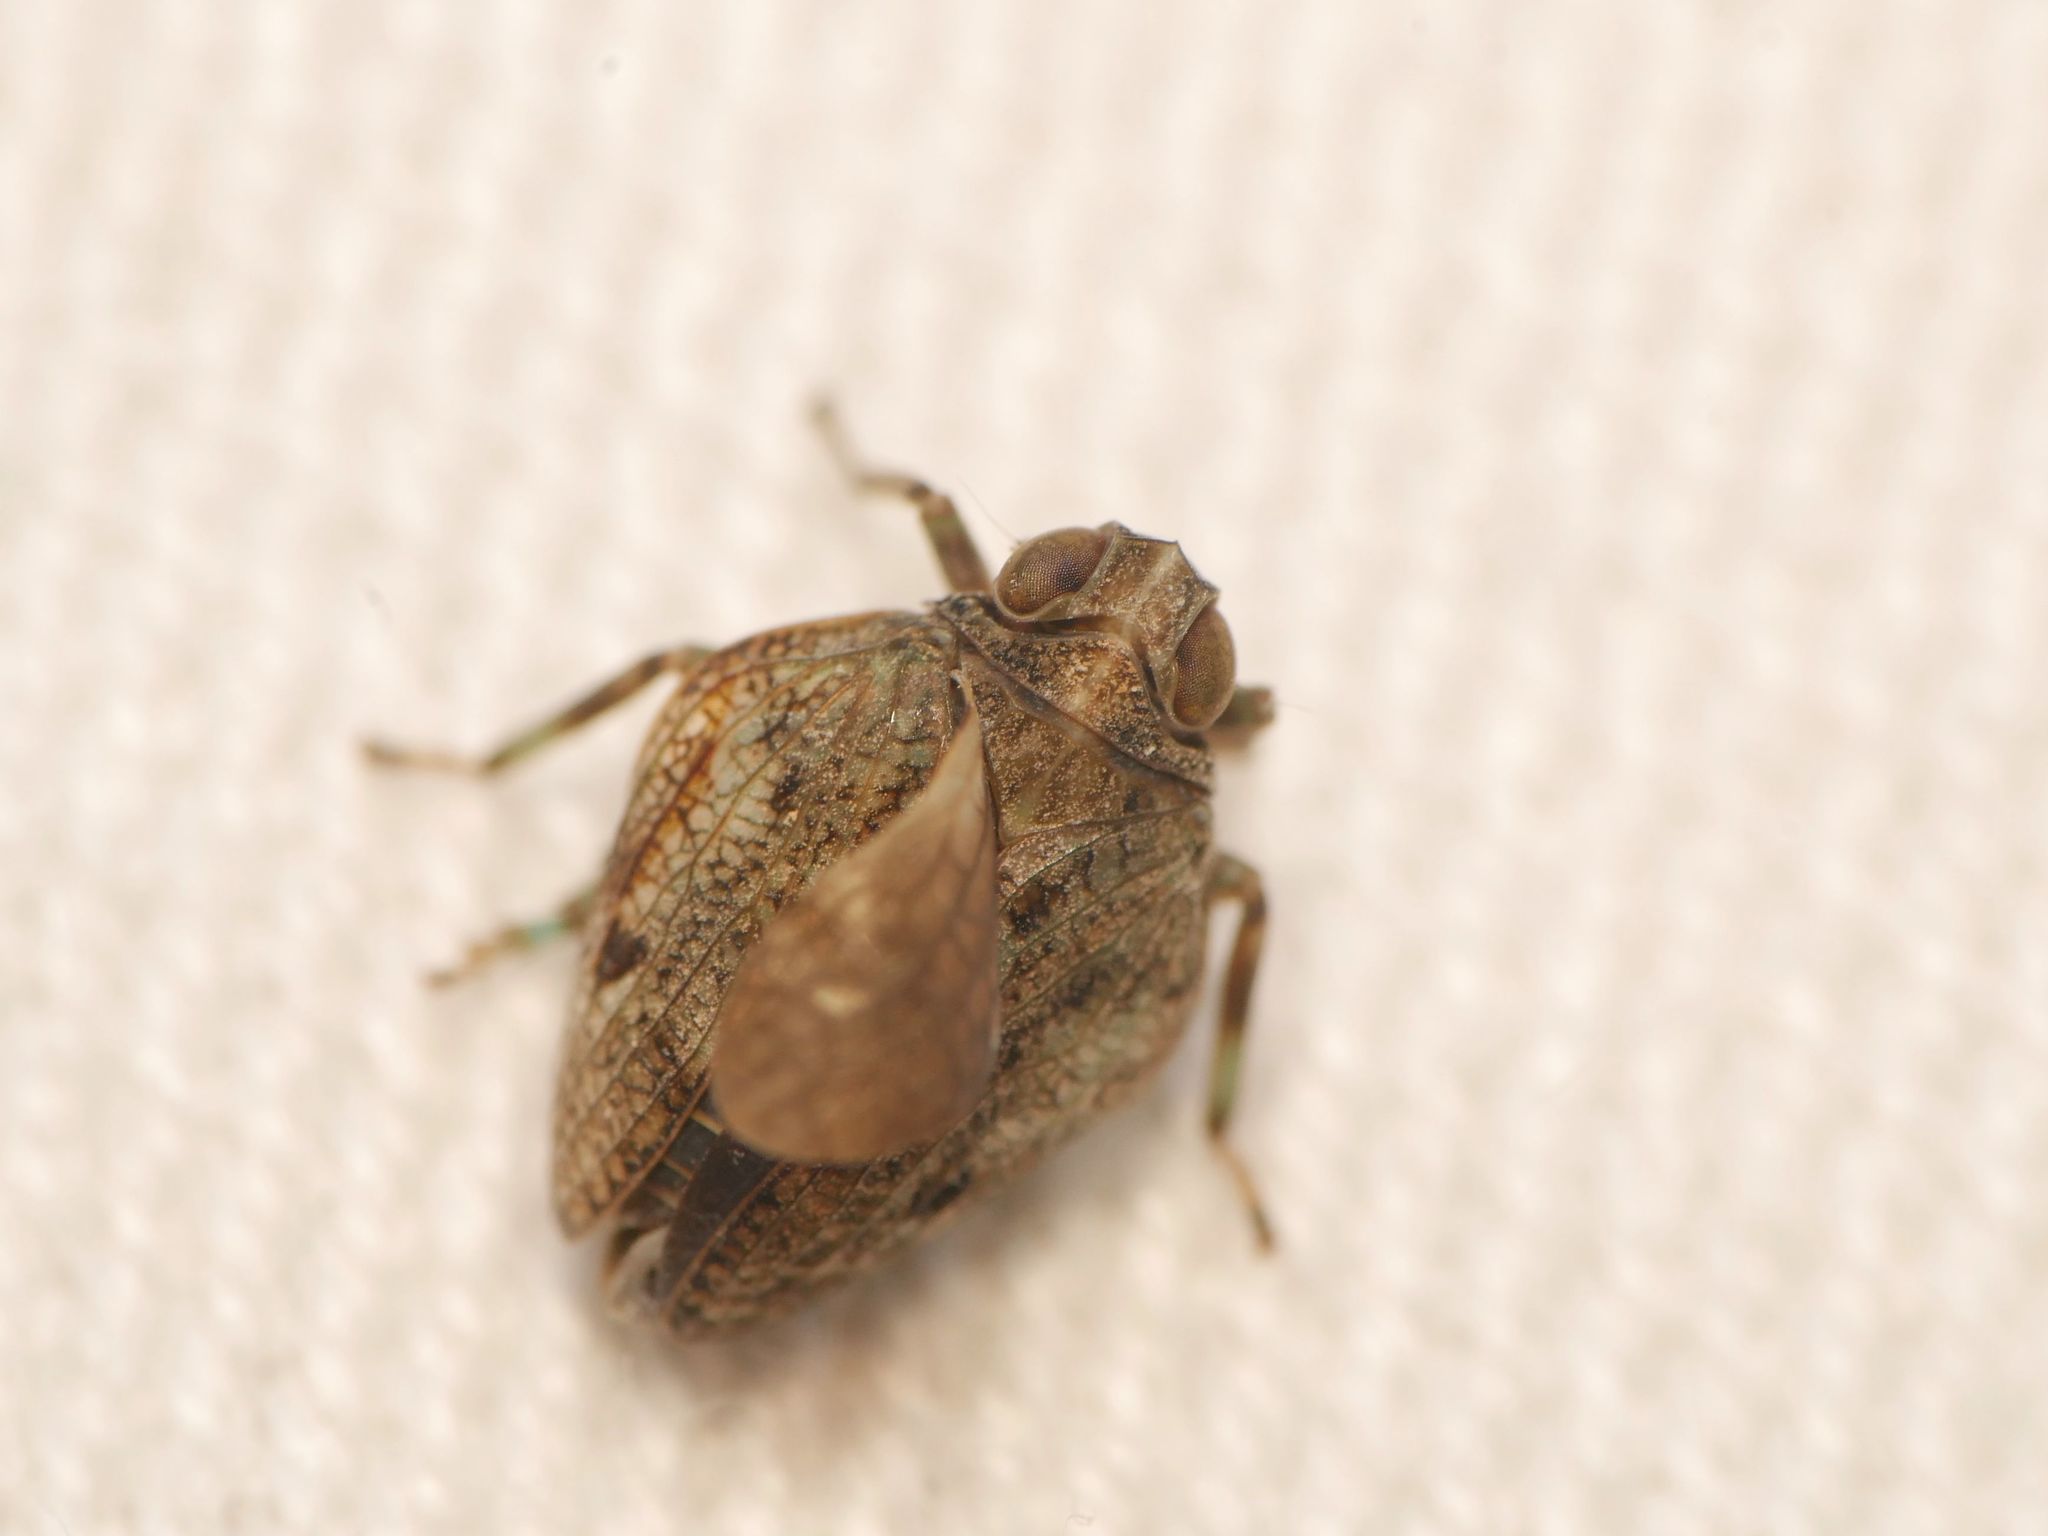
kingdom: Animalia
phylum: Arthropoda
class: Insecta
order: Hemiptera
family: Issidae
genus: Issus
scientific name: Issus coleoptratus
